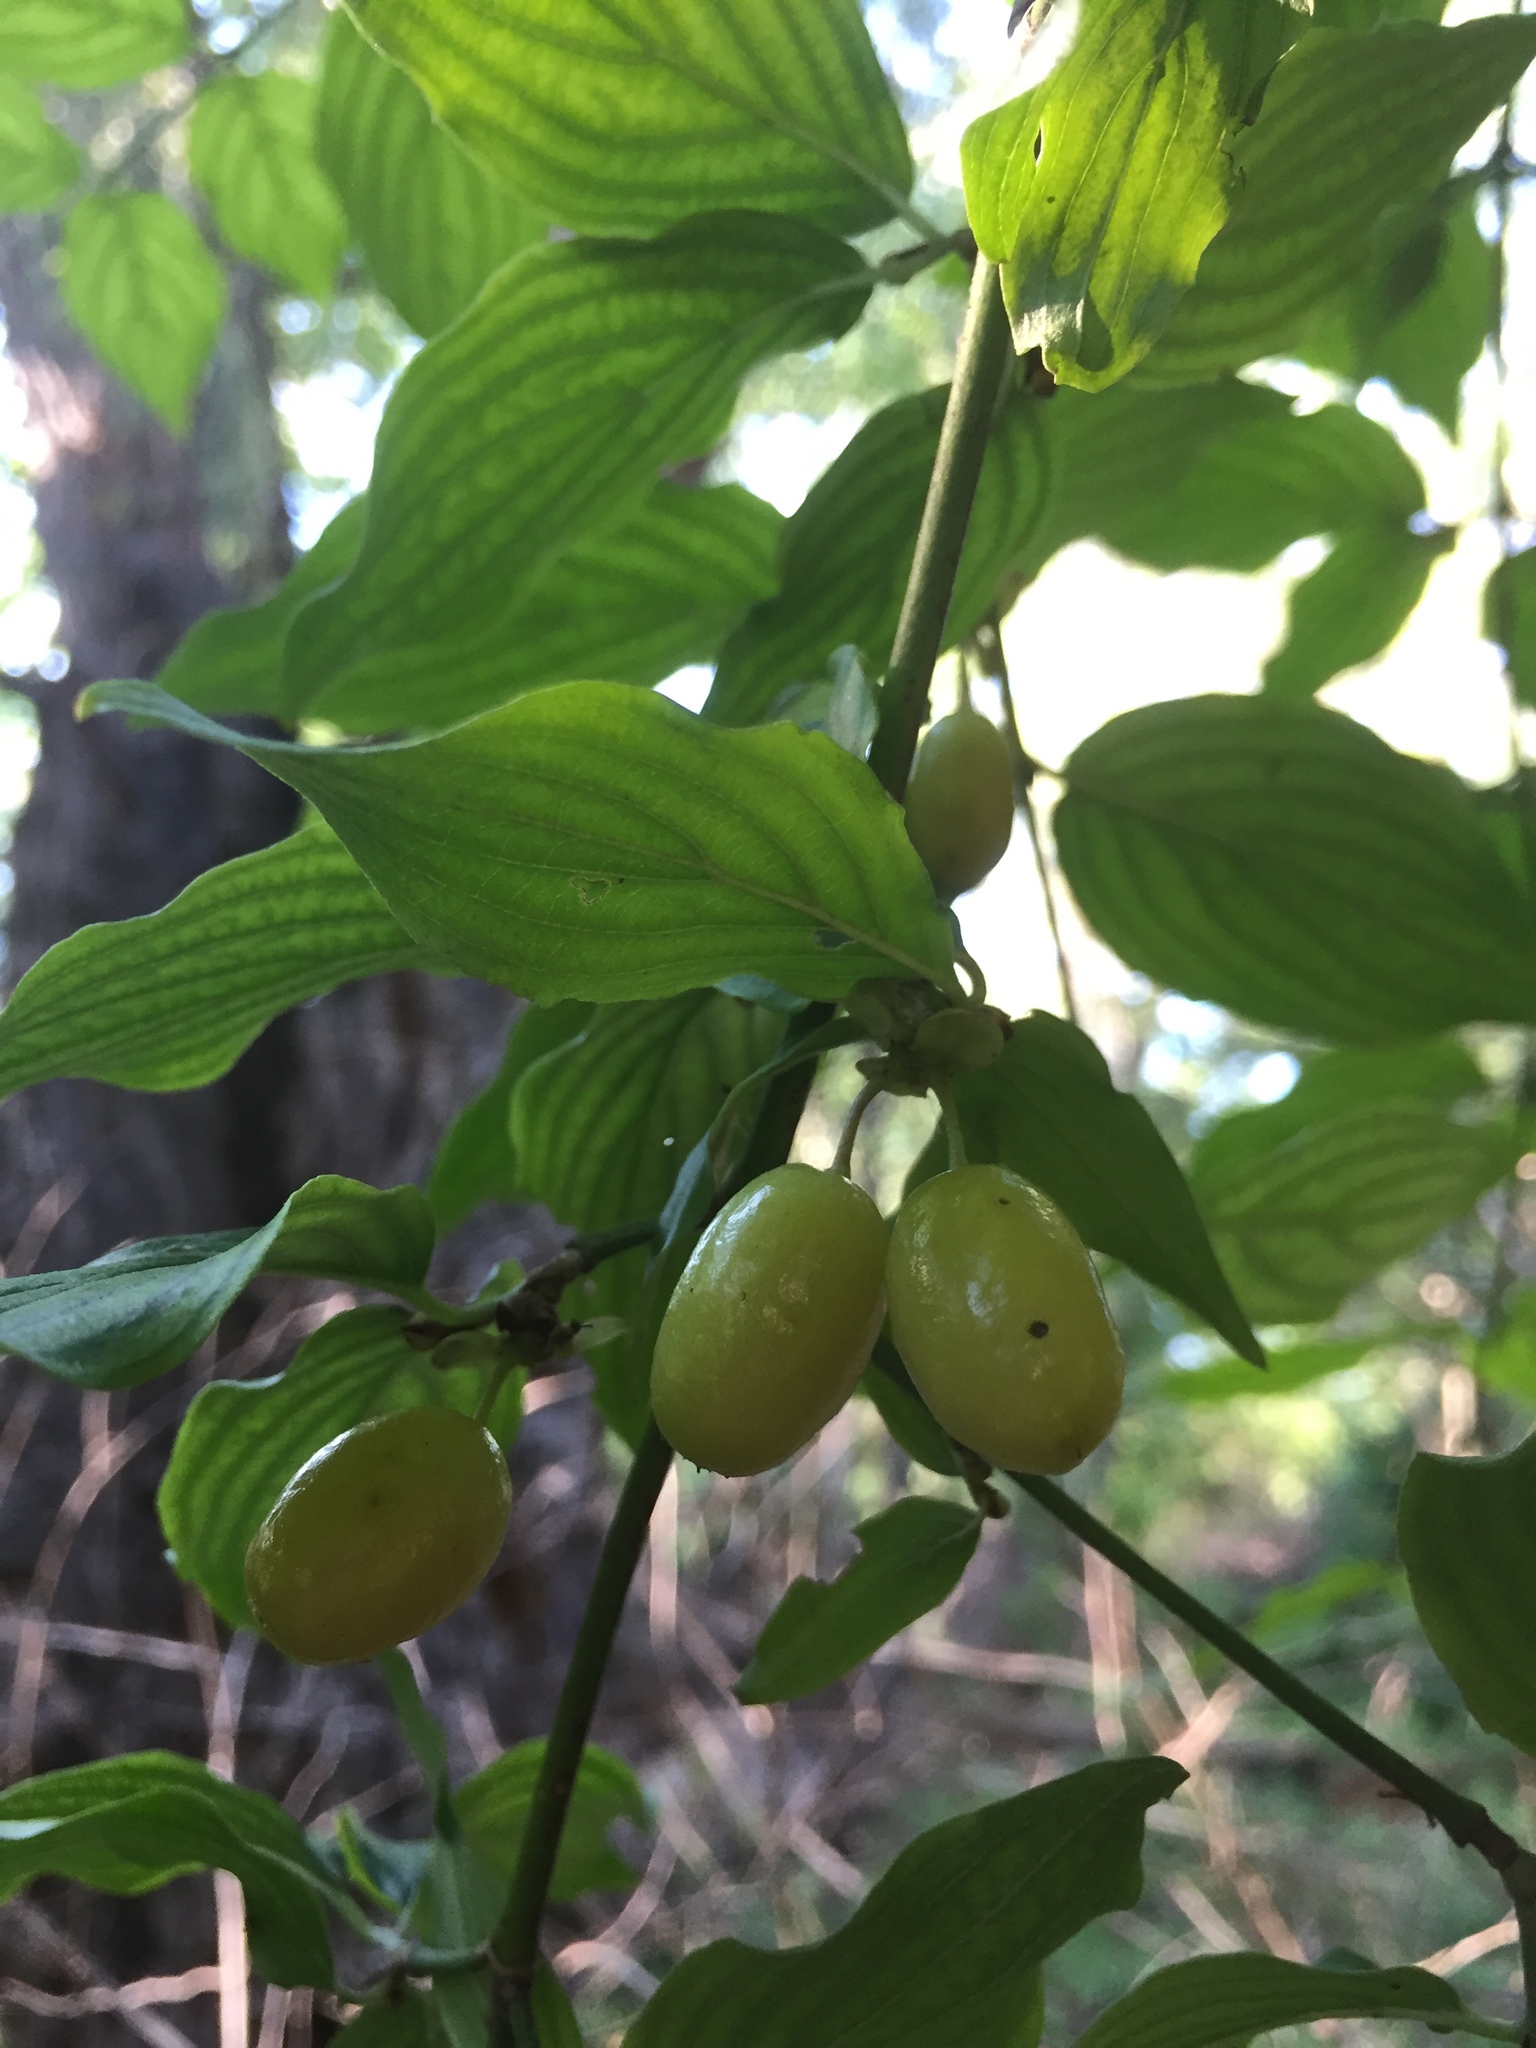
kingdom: Plantae
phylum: Tracheophyta
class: Magnoliopsida
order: Cornales
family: Cornaceae
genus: Cornus
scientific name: Cornus mas
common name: Cornelian-cherry
